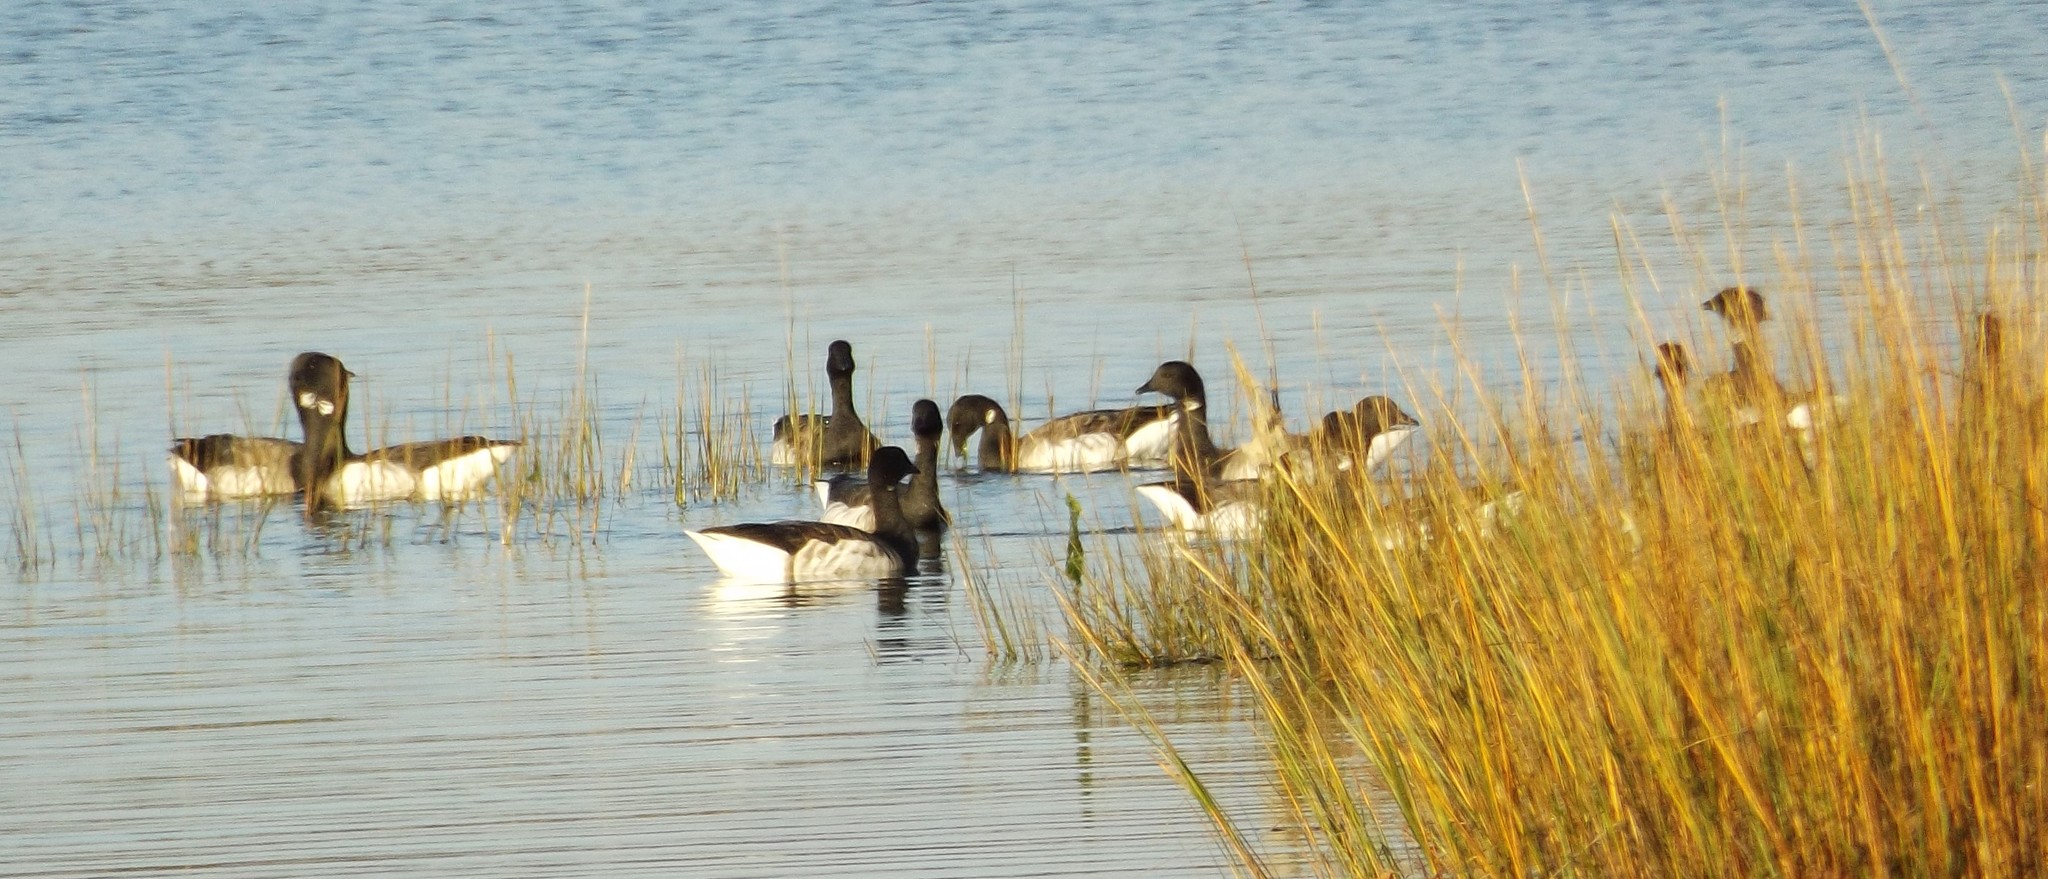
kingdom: Animalia
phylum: Chordata
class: Aves
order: Anseriformes
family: Anatidae
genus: Branta
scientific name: Branta bernicla
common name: Brant goose
